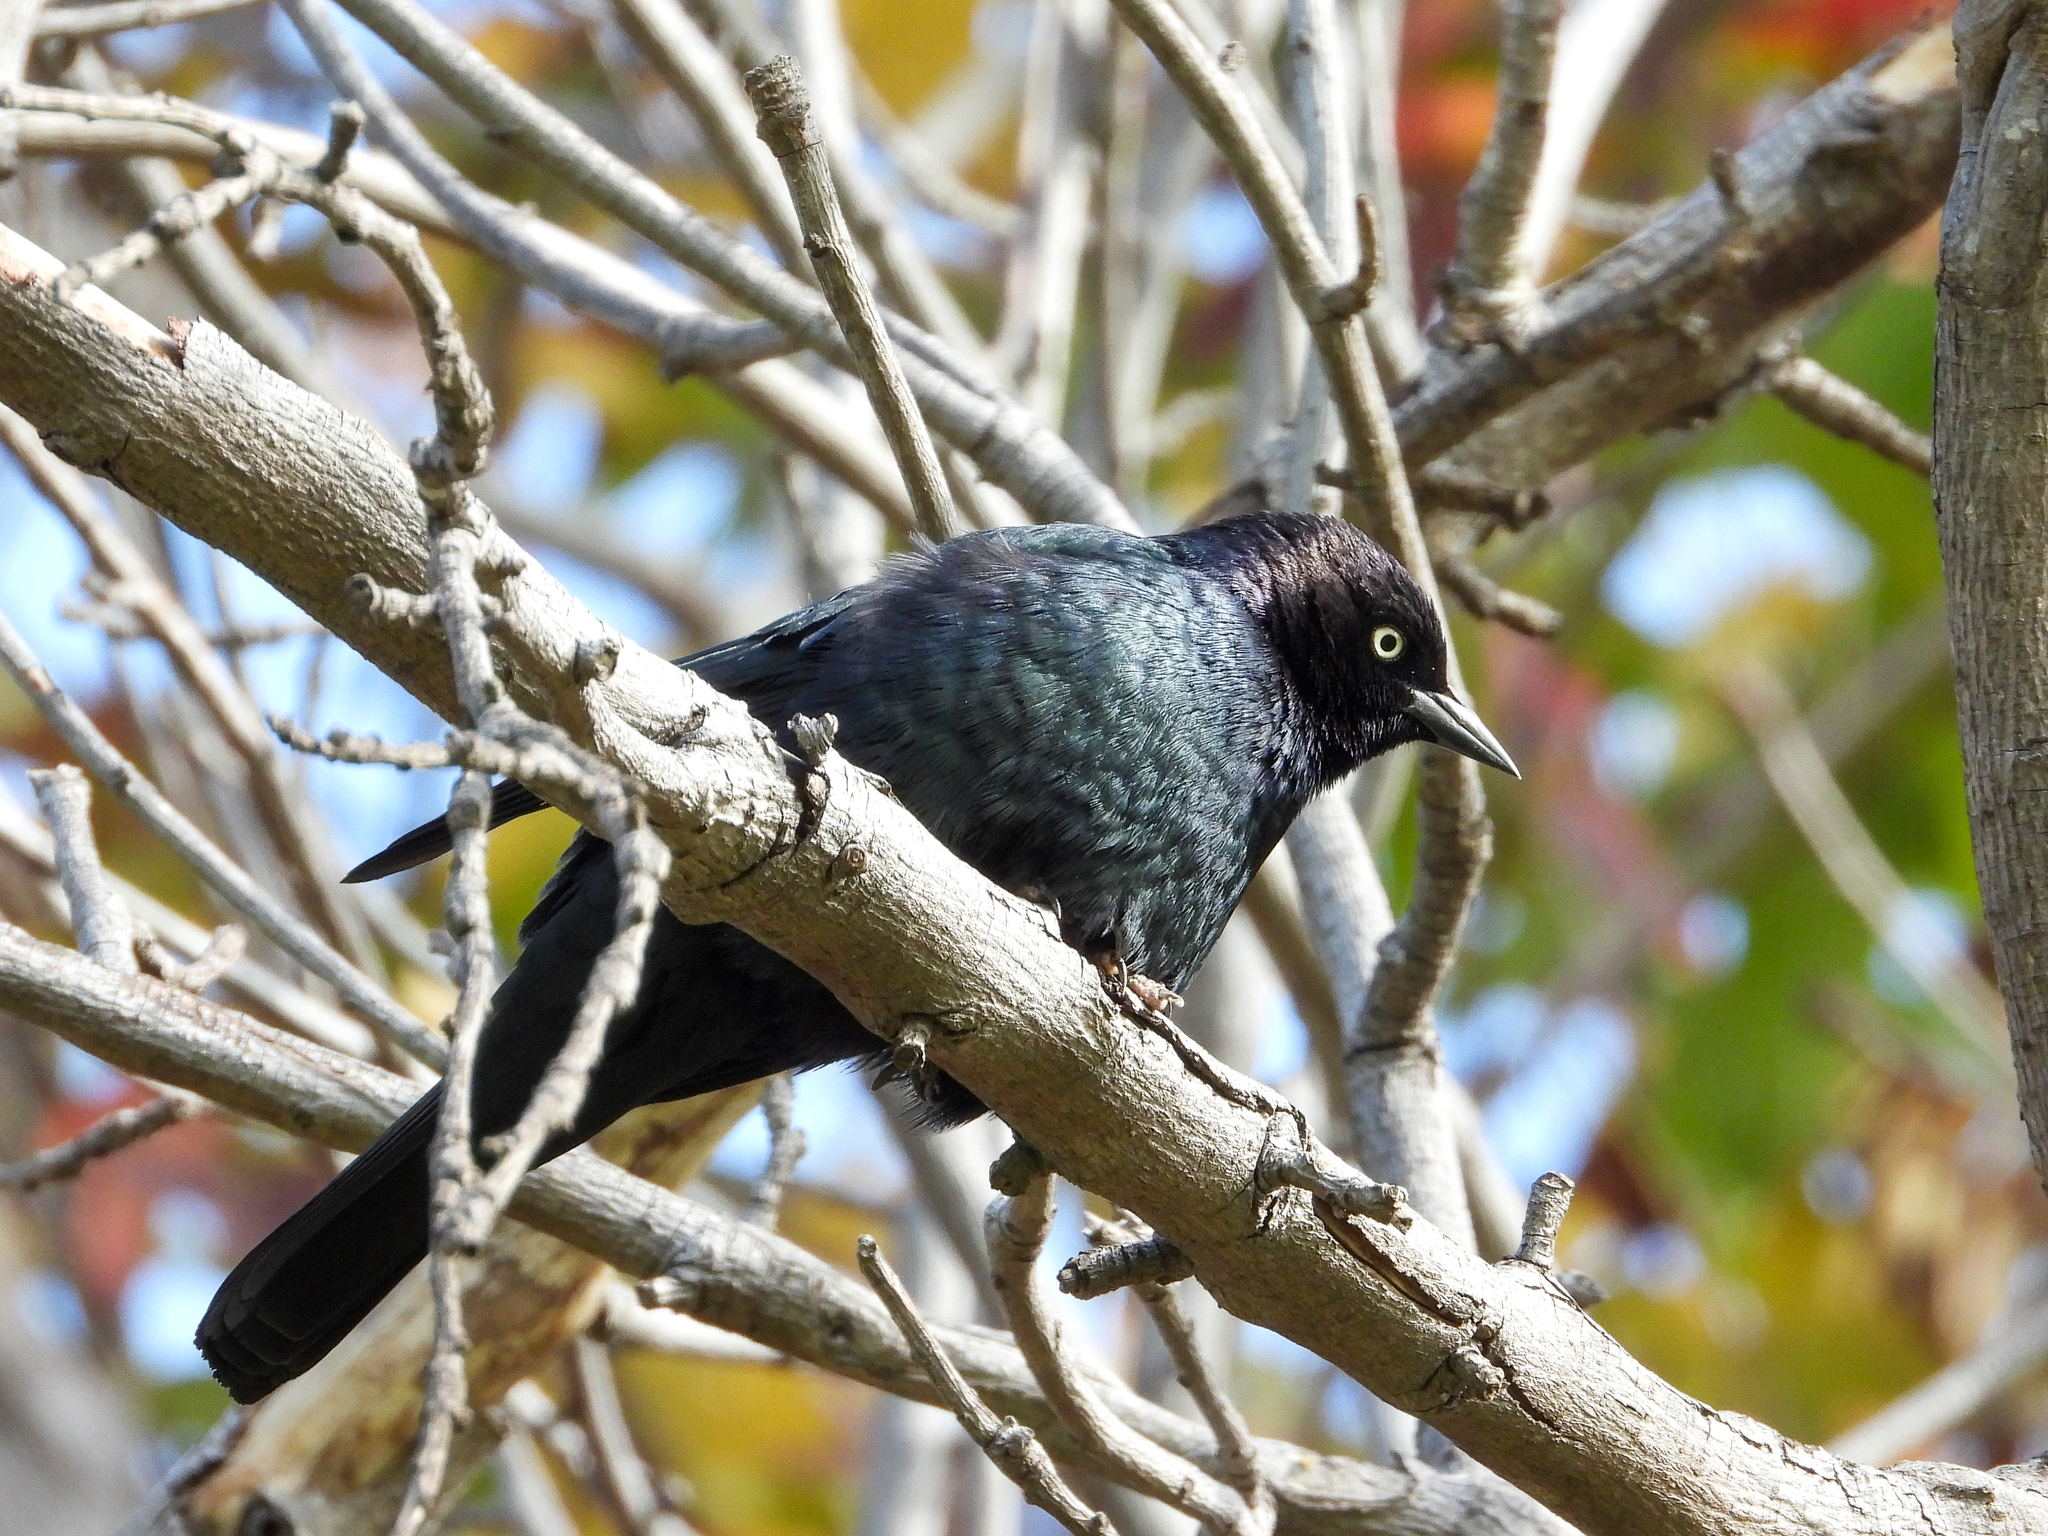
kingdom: Animalia
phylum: Chordata
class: Aves
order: Passeriformes
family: Icteridae
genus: Euphagus
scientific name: Euphagus cyanocephalus
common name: Brewer's blackbird
